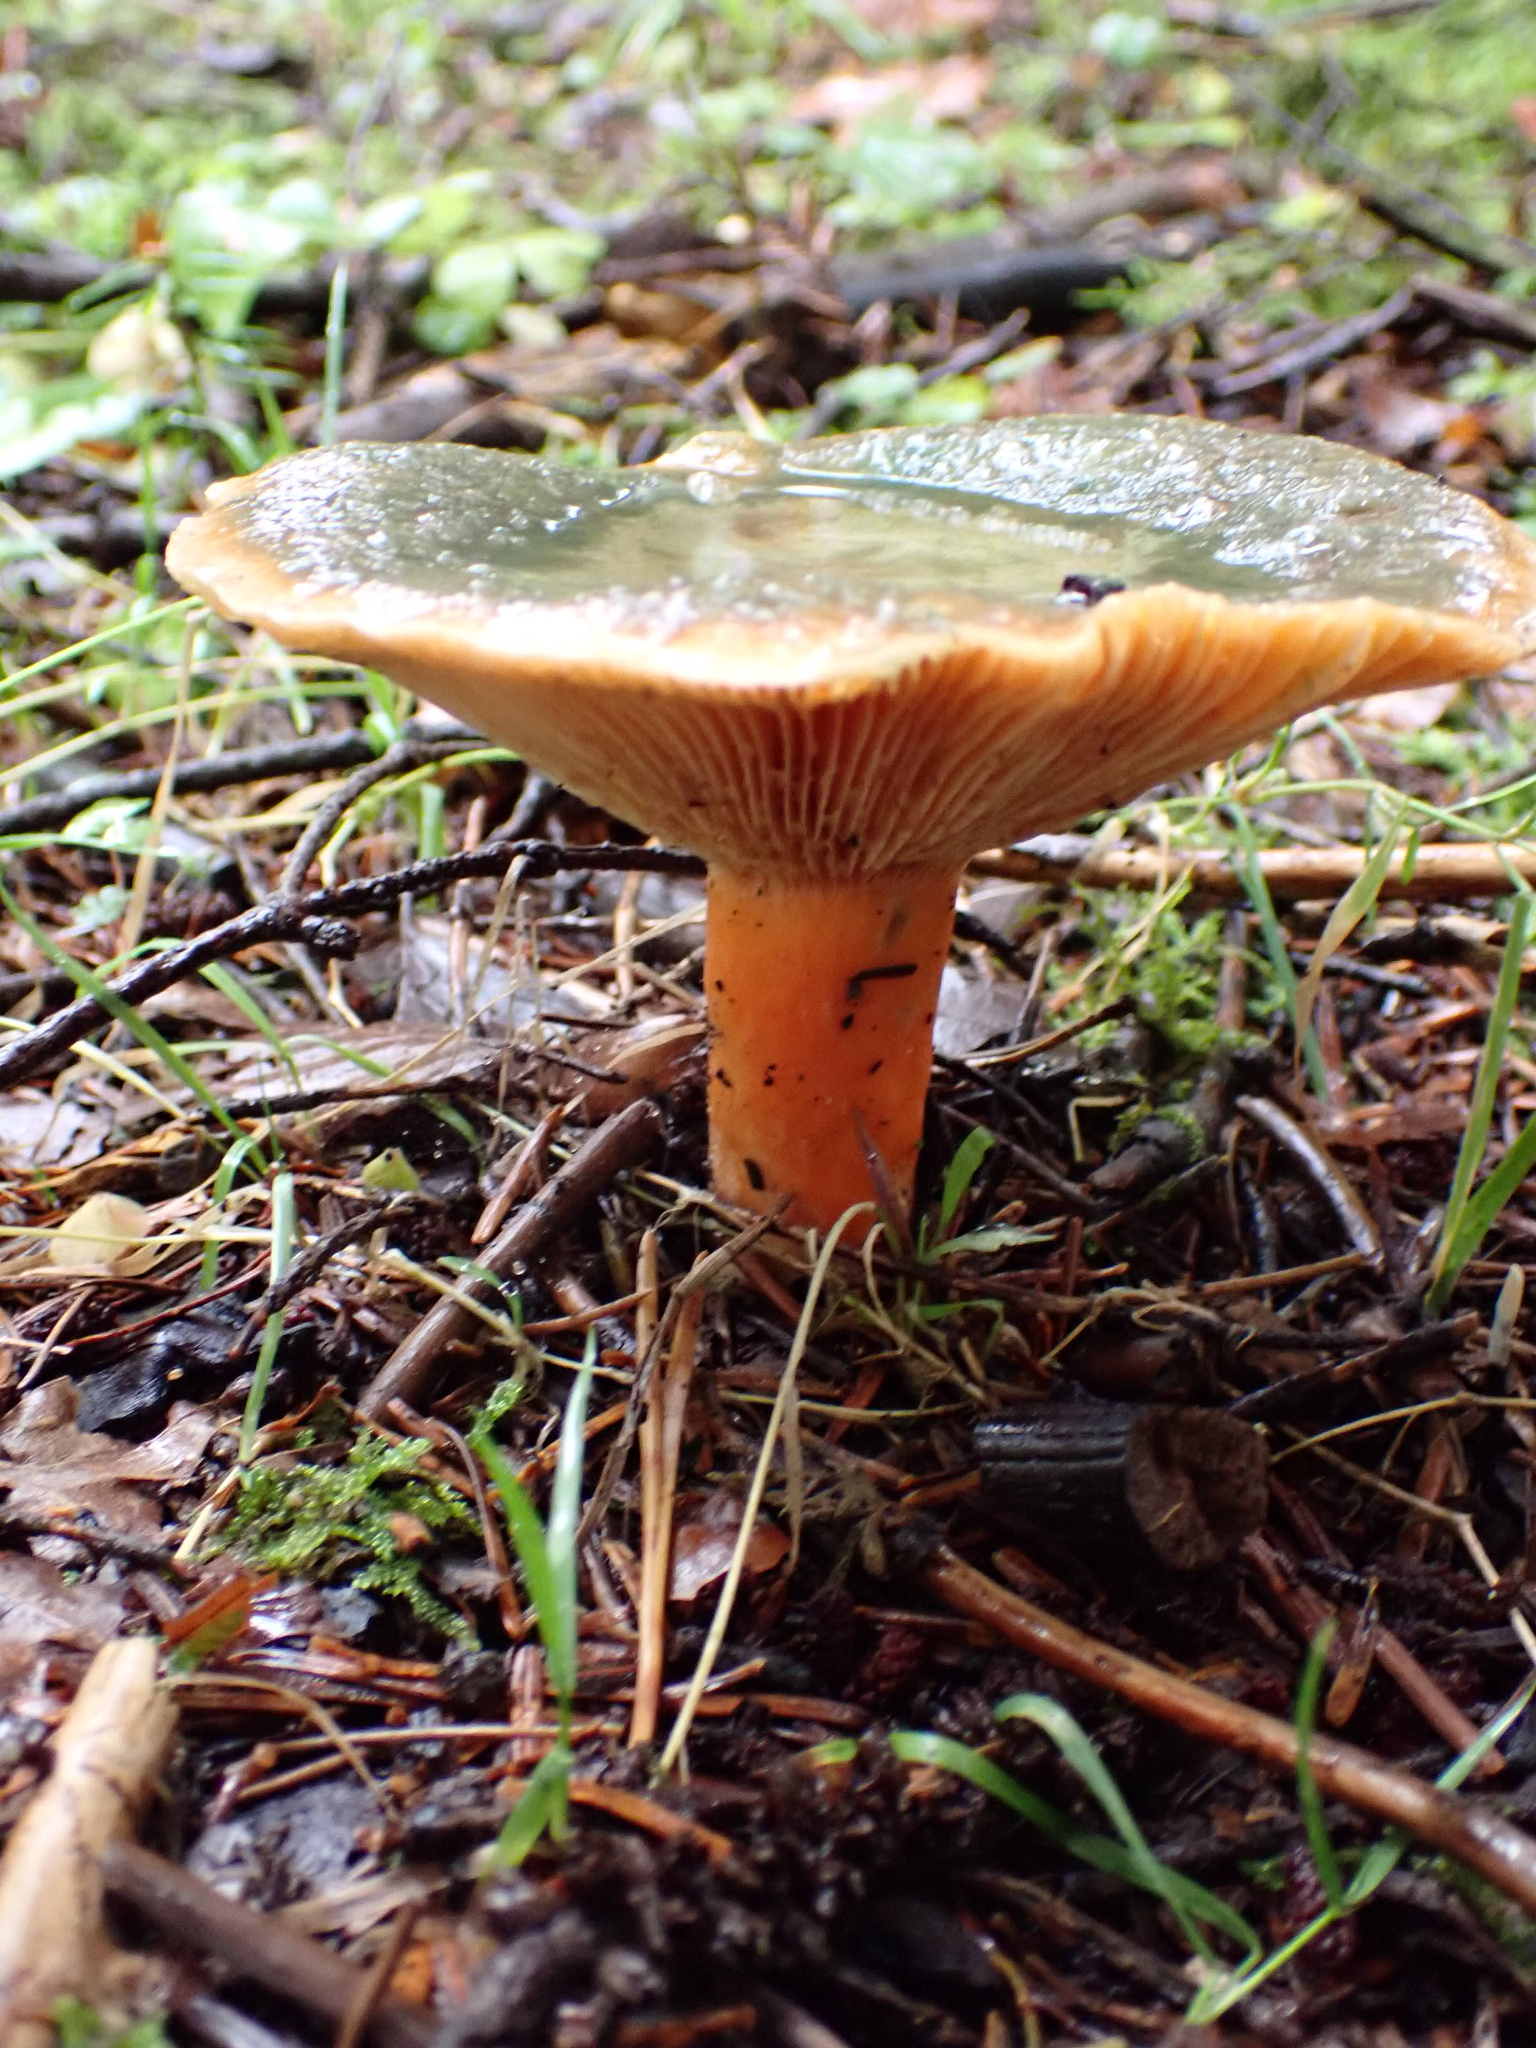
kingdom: Fungi
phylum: Basidiomycota
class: Agaricomycetes
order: Russulales
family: Russulaceae
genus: Lactarius
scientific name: Lactarius deterrimus
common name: False saffron milkcap
